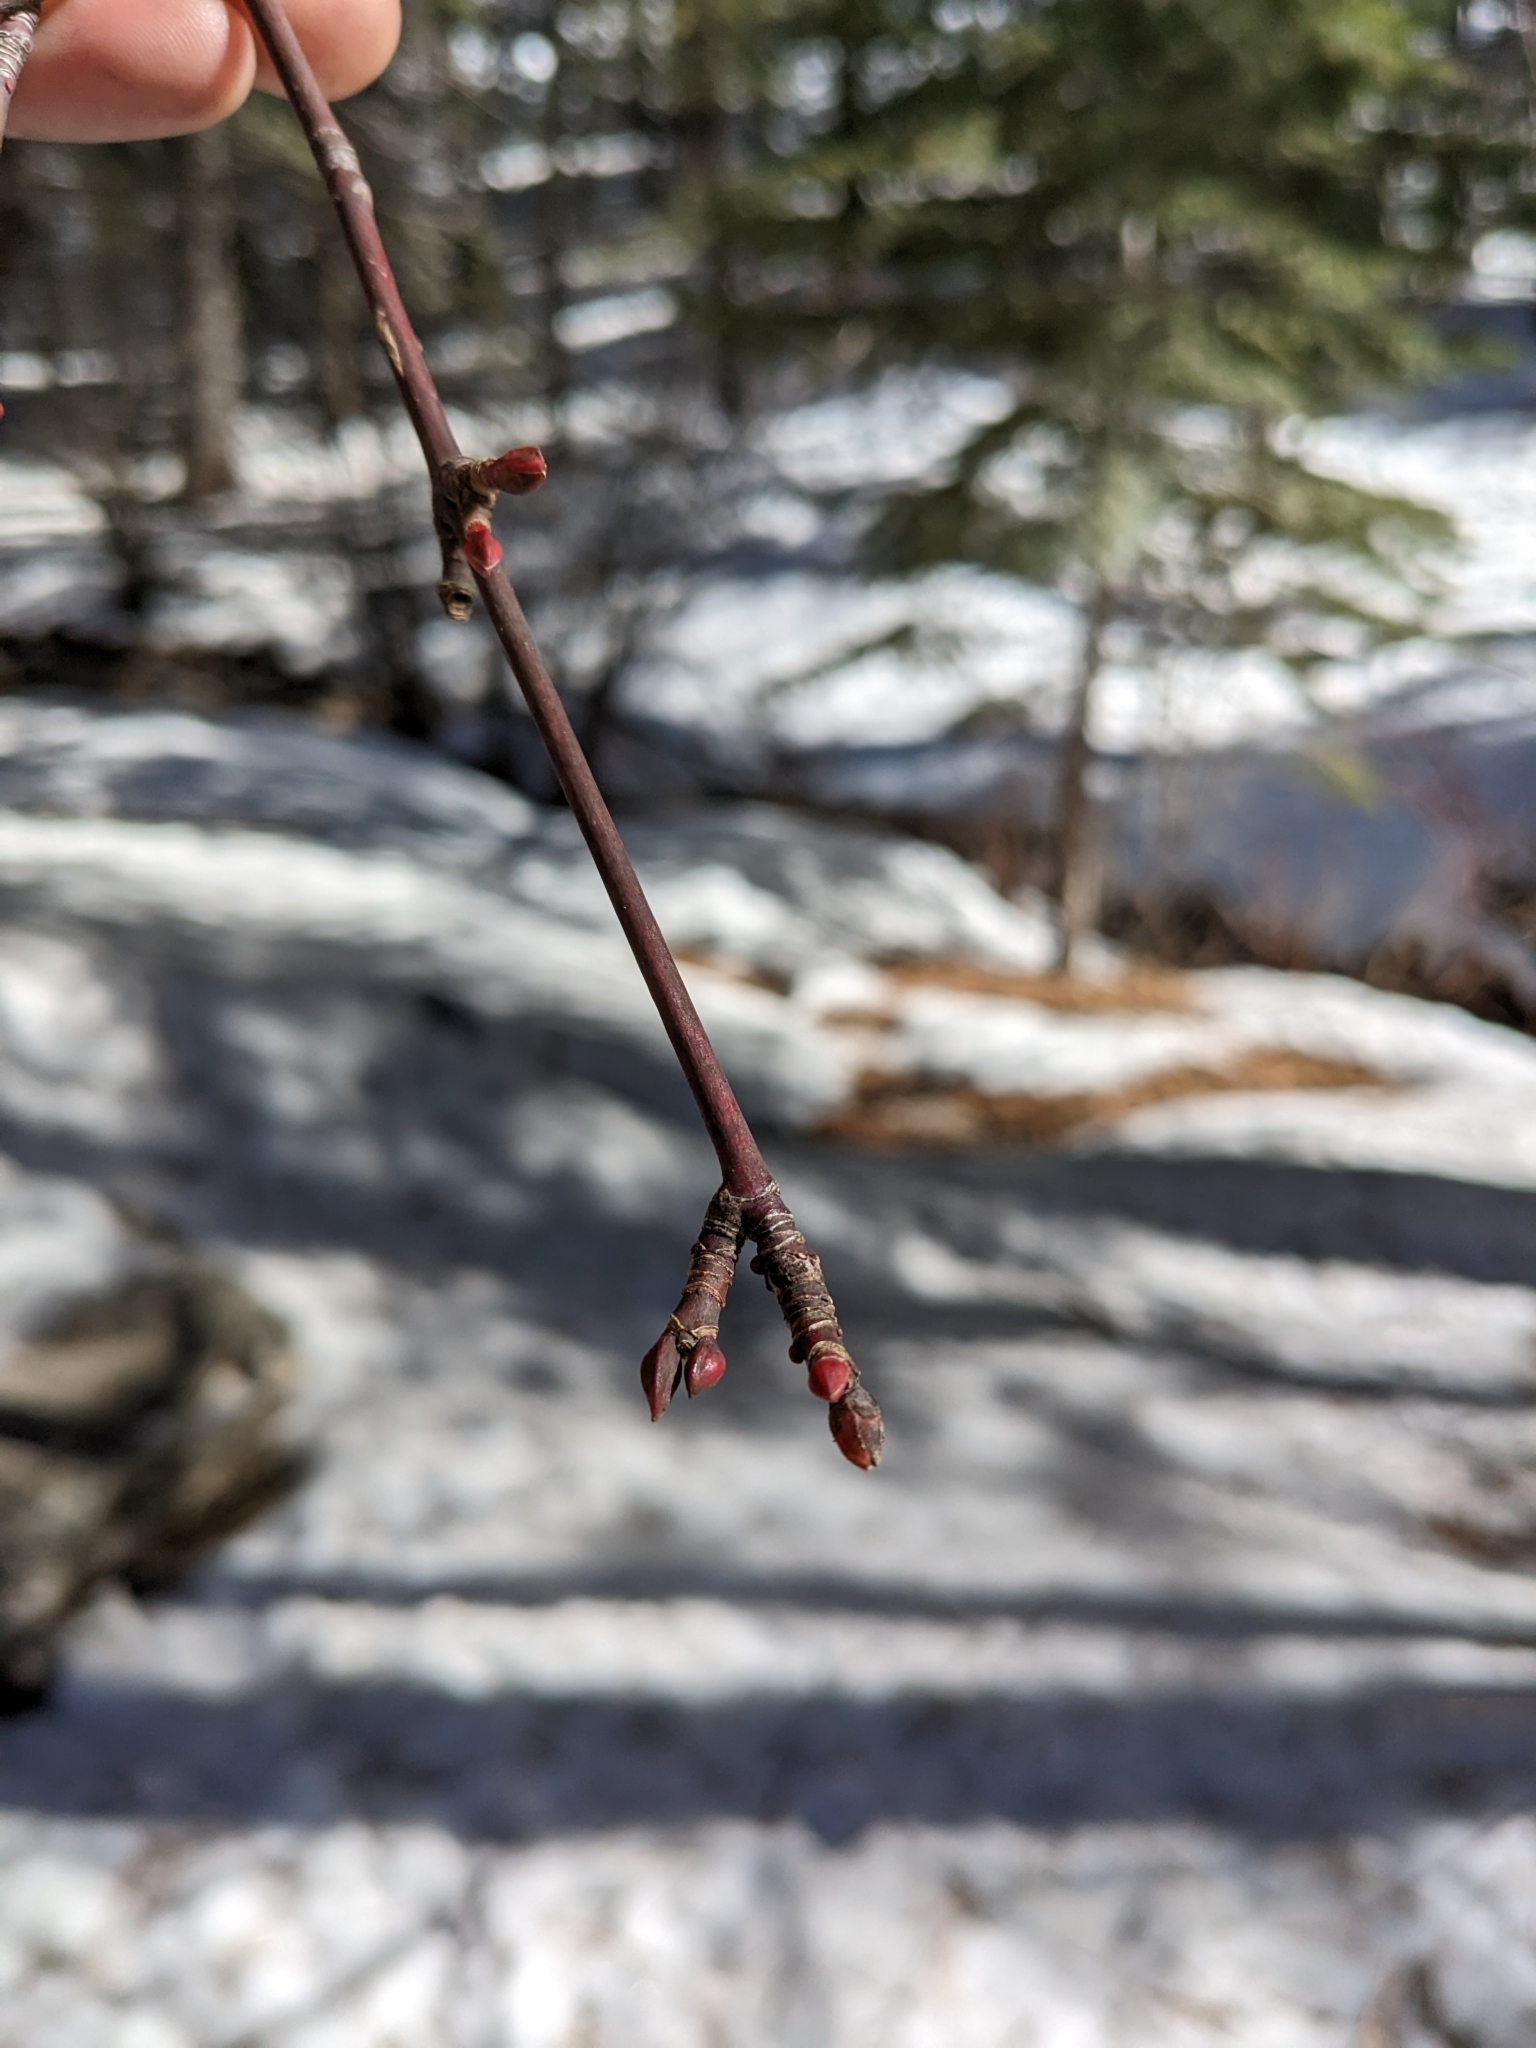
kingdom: Plantae
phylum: Tracheophyta
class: Magnoliopsida
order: Sapindales
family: Sapindaceae
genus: Acer
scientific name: Acer glabrum
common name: Rocky mountain maple
